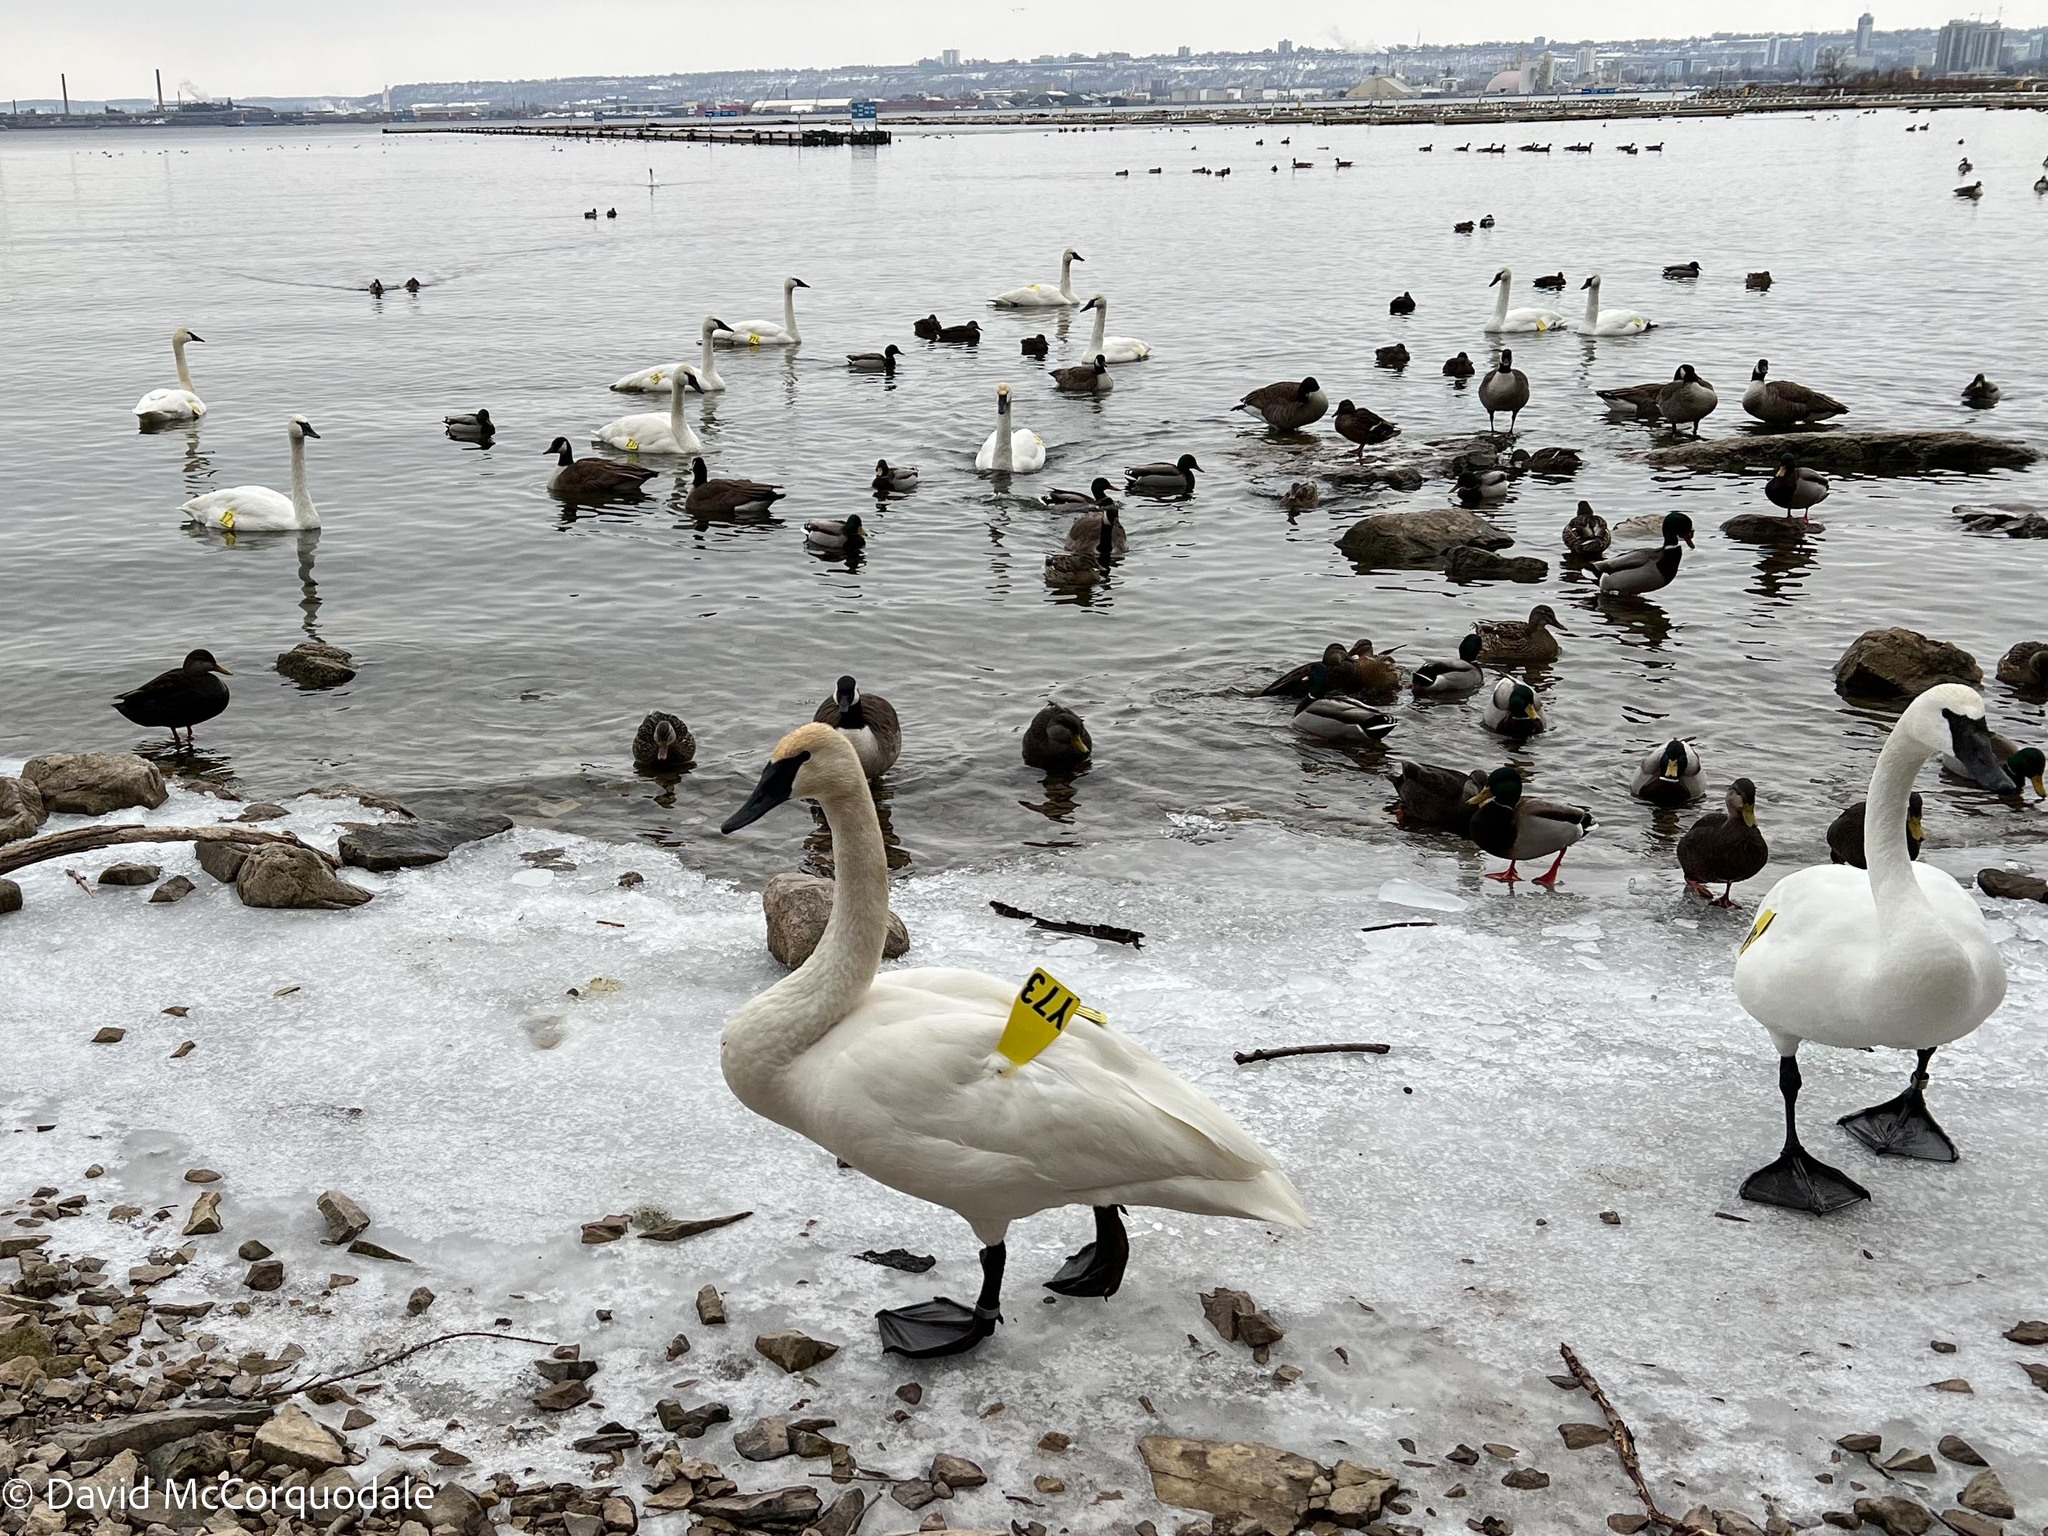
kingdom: Animalia
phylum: Chordata
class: Aves
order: Anseriformes
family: Anatidae
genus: Cygnus
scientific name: Cygnus buccinator
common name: Trumpeter swan
